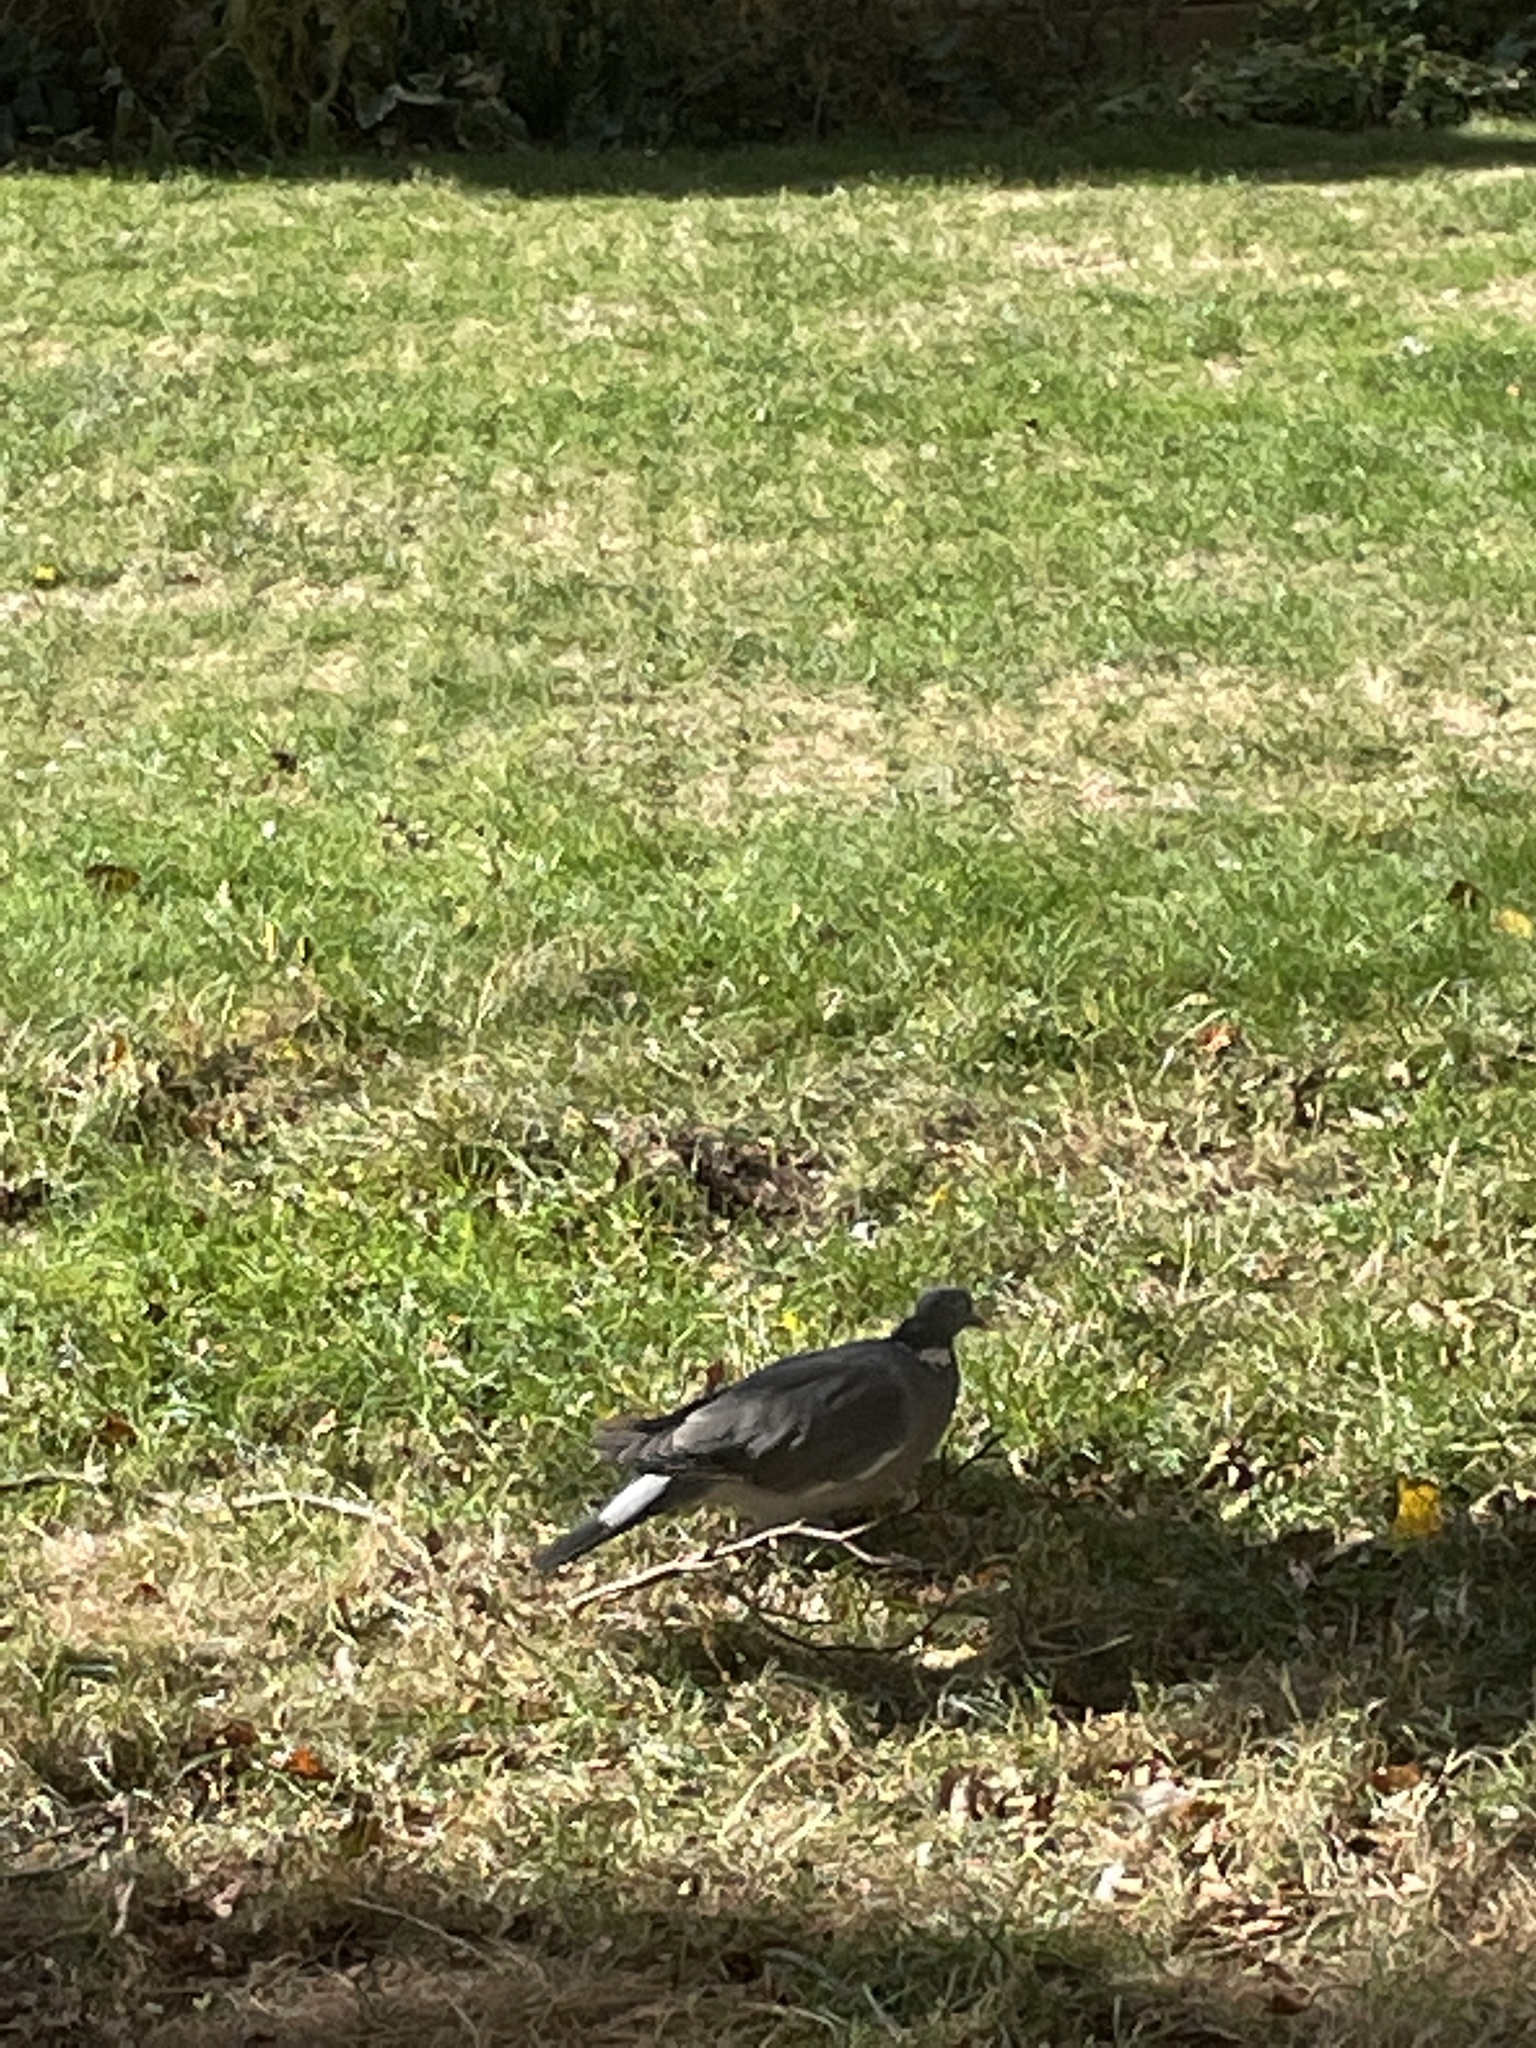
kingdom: Animalia
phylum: Chordata
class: Aves
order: Columbiformes
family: Columbidae
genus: Columba
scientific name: Columba palumbus
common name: Common wood pigeon
